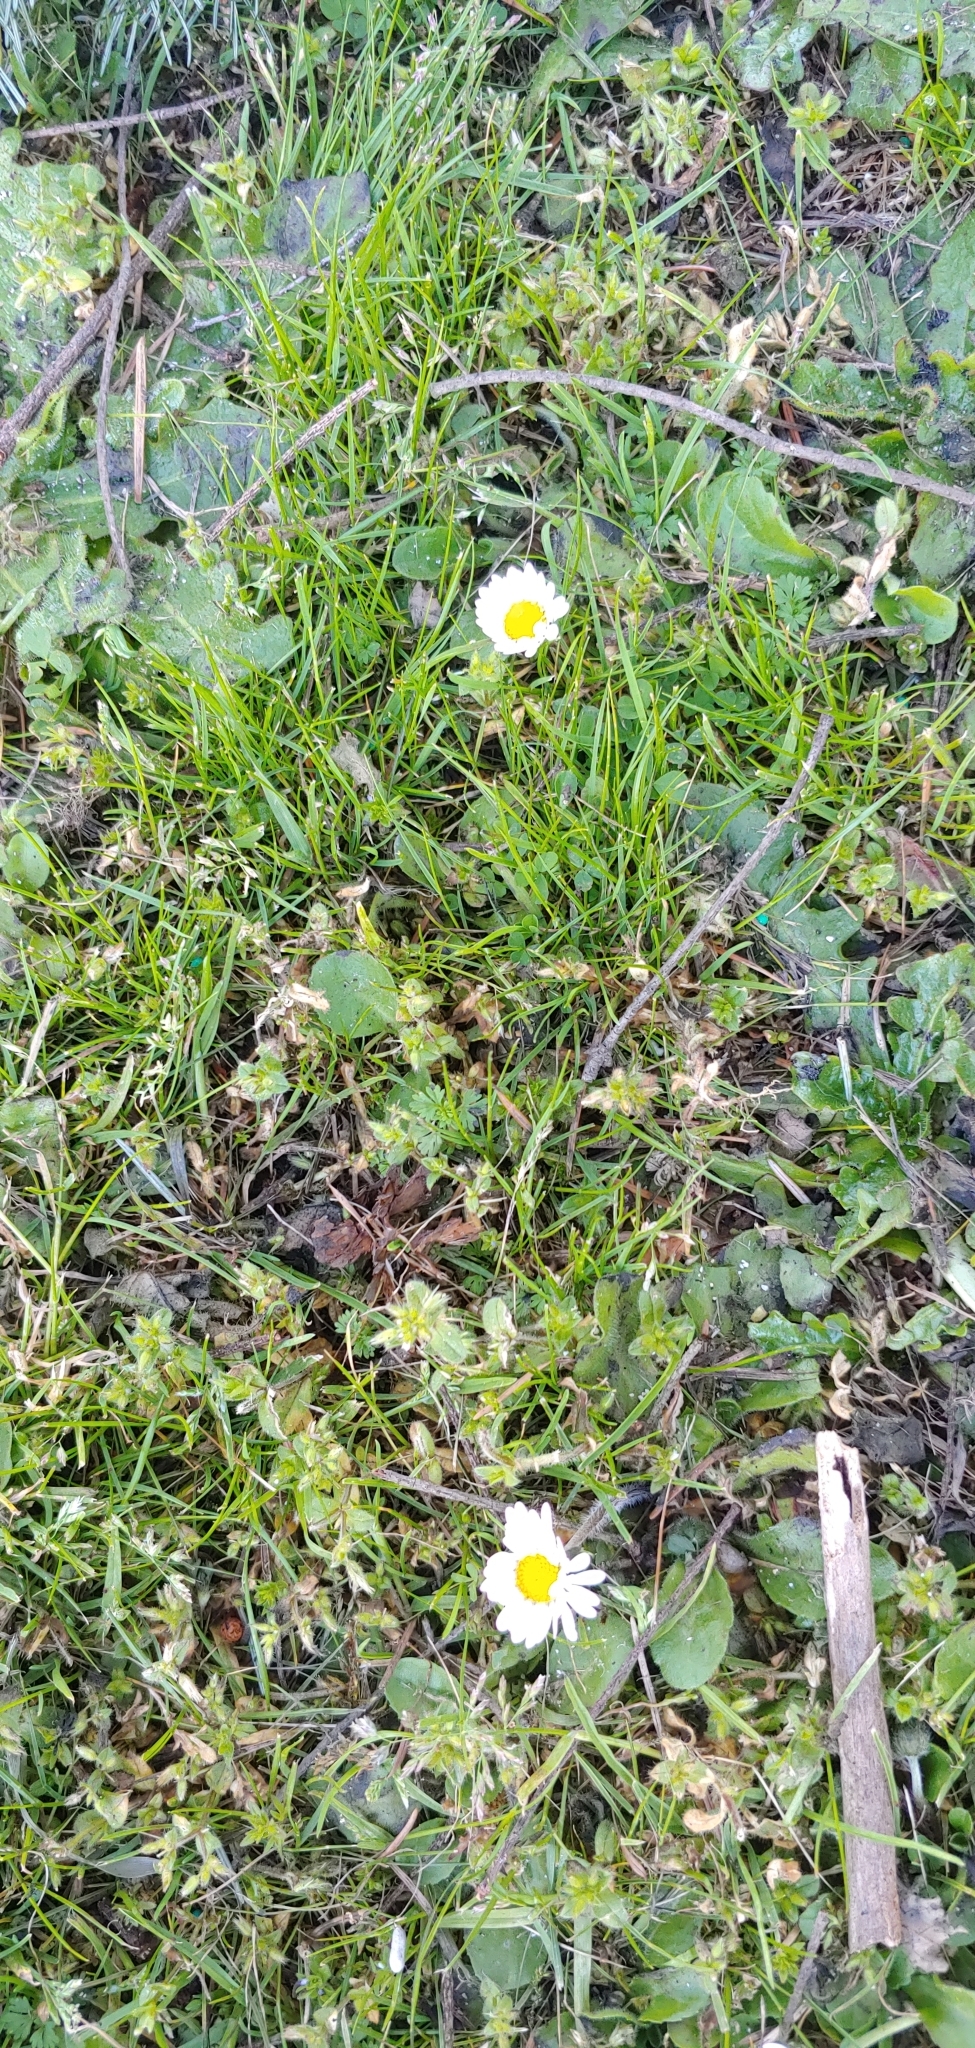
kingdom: Plantae
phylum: Tracheophyta
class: Magnoliopsida
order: Asterales
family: Asteraceae
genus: Bellis
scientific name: Bellis perennis
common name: Lawndaisy
